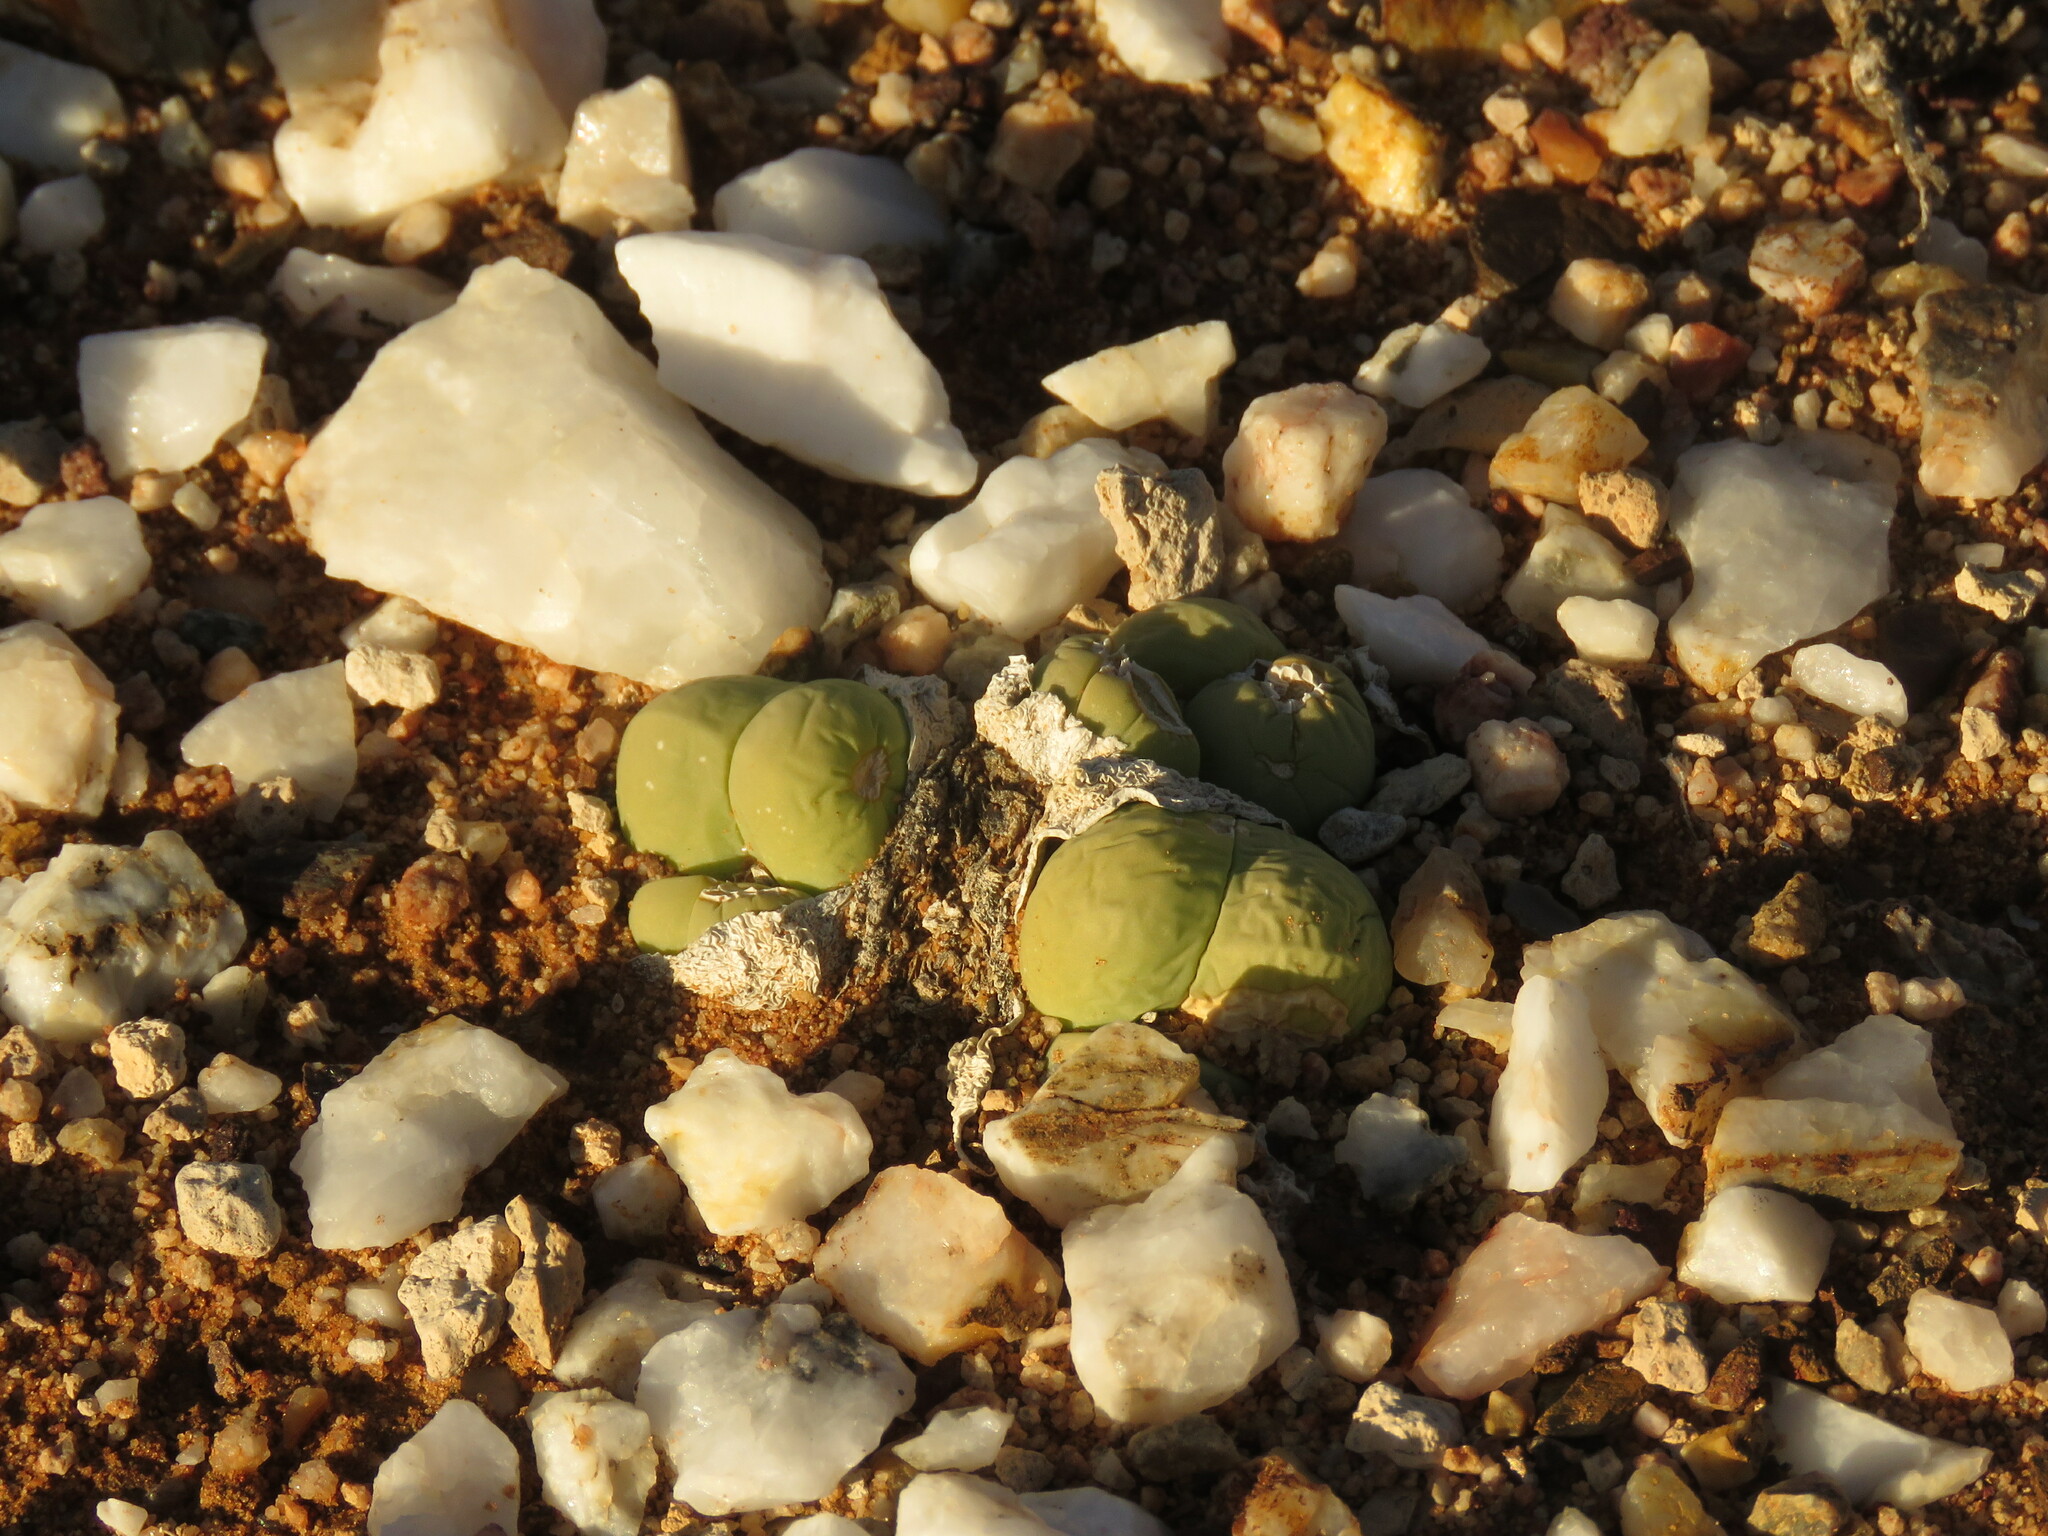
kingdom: Plantae
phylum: Tracheophyta
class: Magnoliopsida
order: Caryophyllales
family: Aizoaceae
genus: Gibbaeum
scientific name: Gibbaeum heathii
